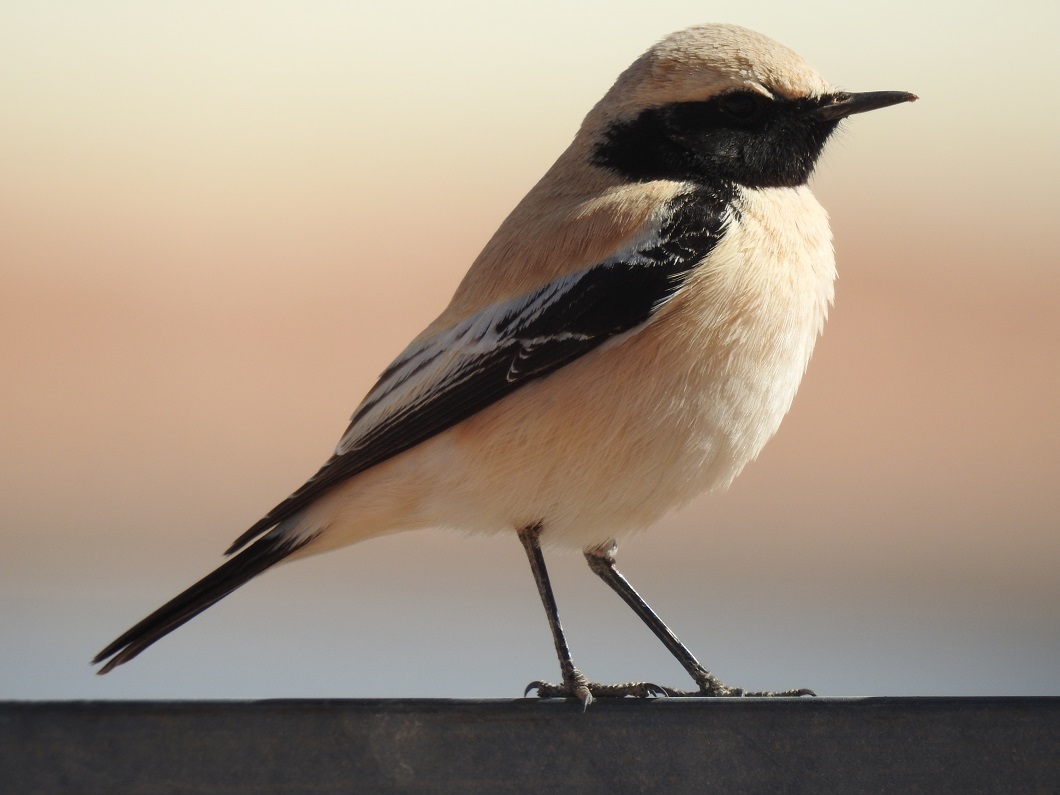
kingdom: Animalia
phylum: Chordata
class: Aves
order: Passeriformes
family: Muscicapidae
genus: Oenanthe
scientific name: Oenanthe deserti
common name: Desert wheatear
